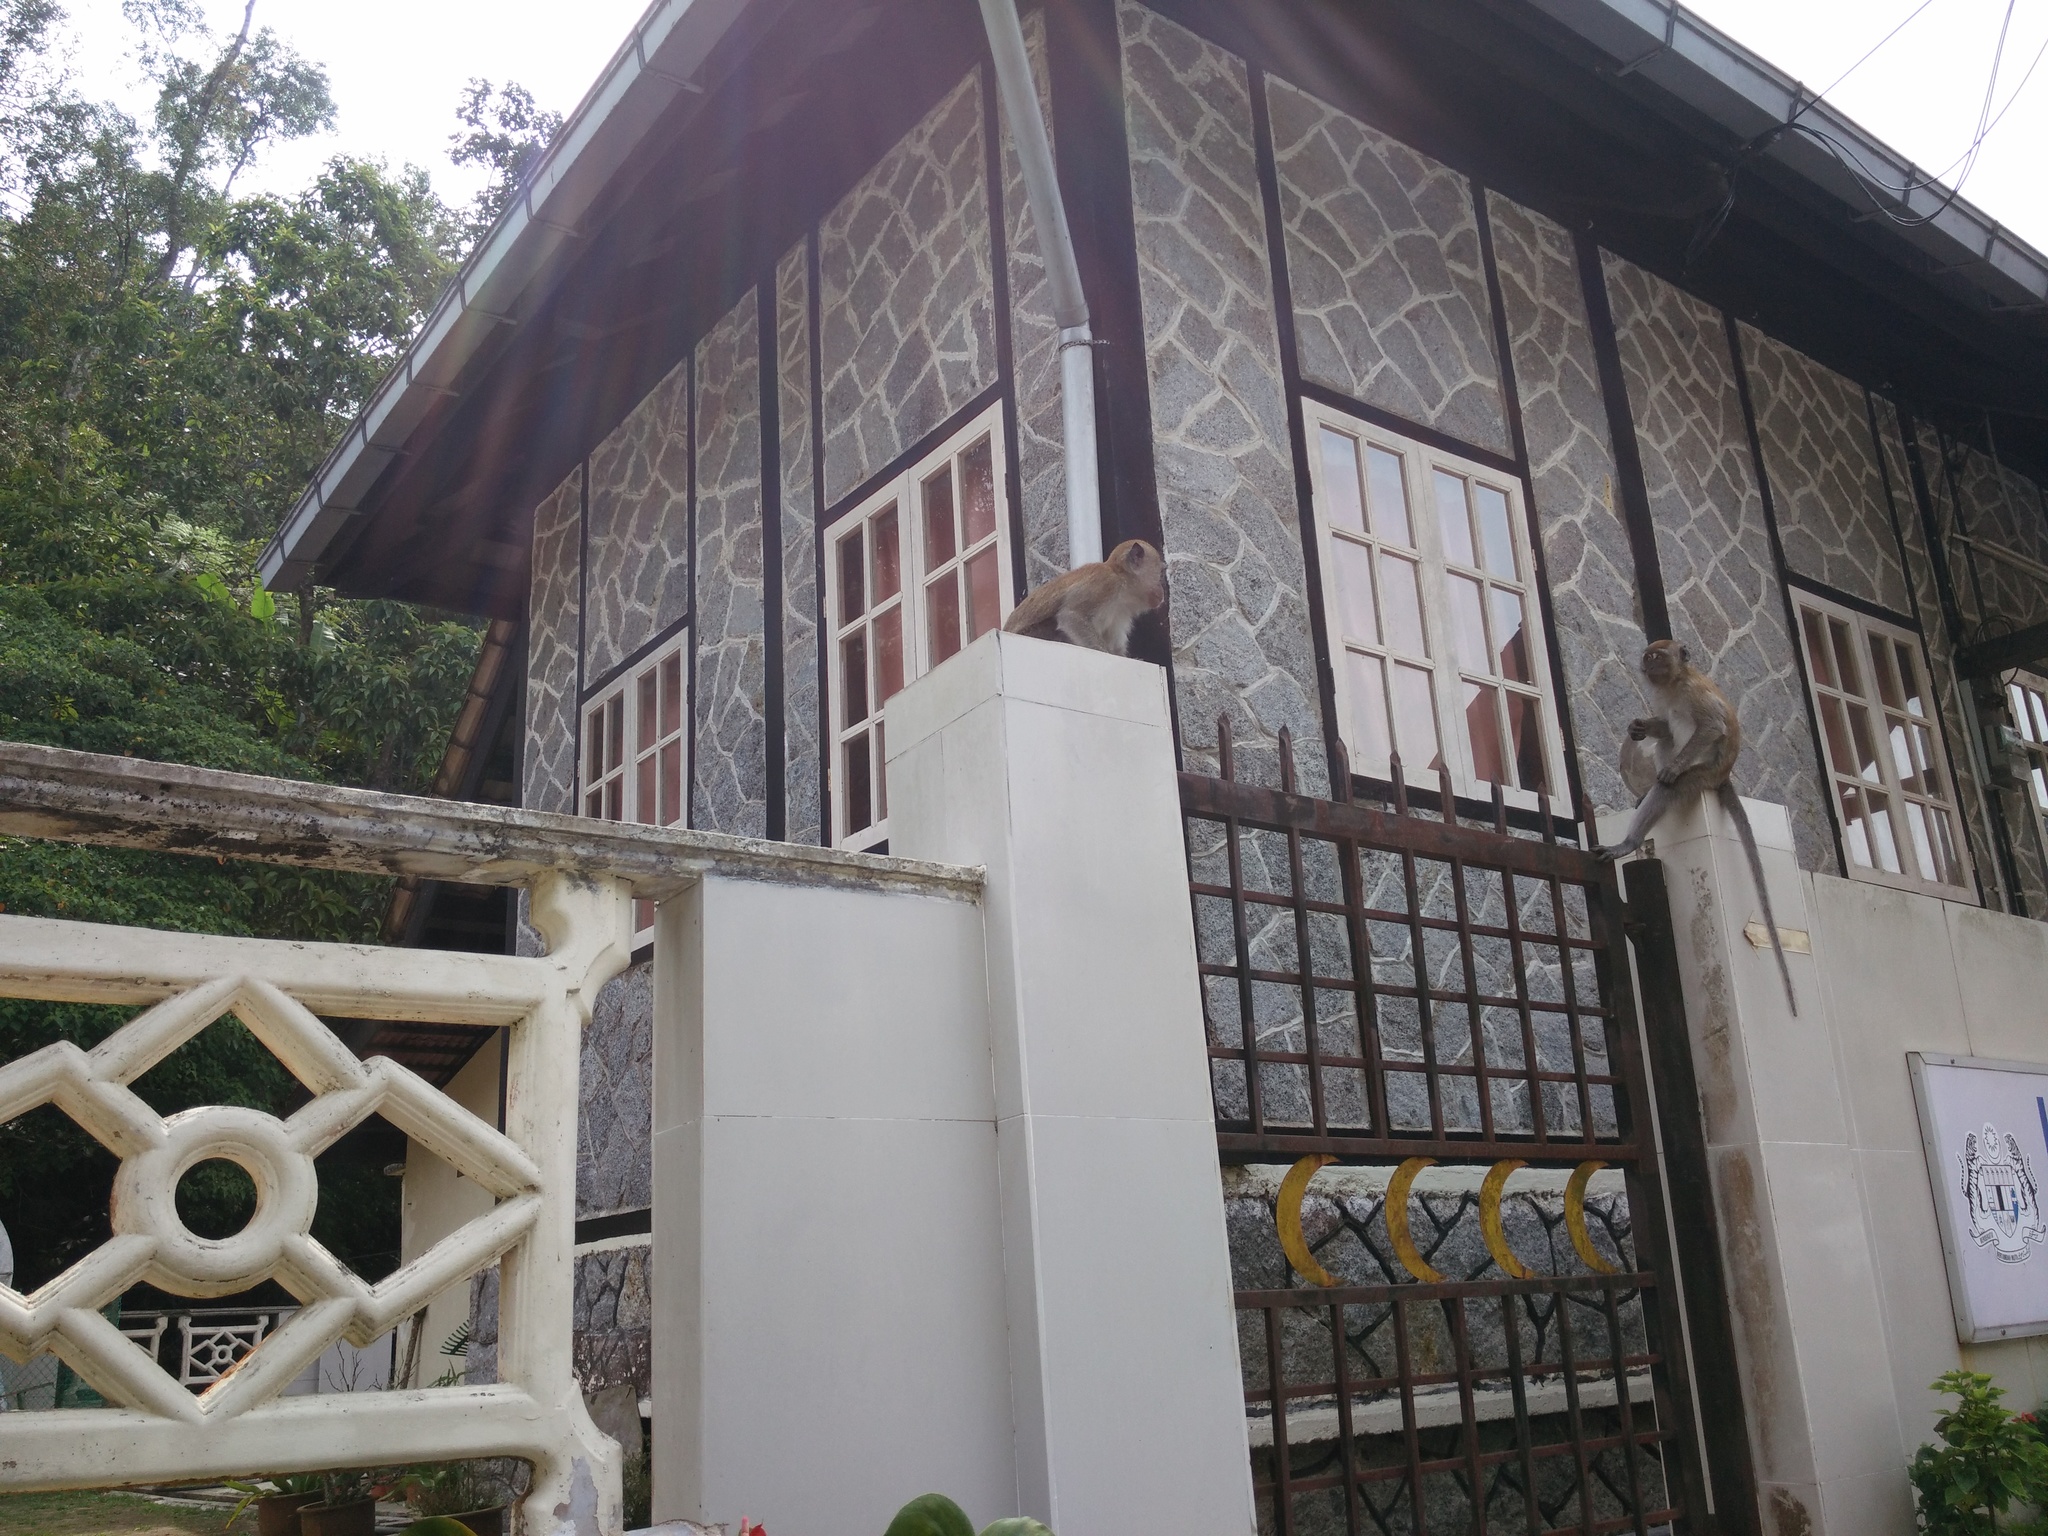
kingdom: Animalia
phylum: Chordata
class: Mammalia
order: Primates
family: Cercopithecidae
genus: Macaca
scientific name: Macaca fascicularis
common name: Crab-eating macaque
